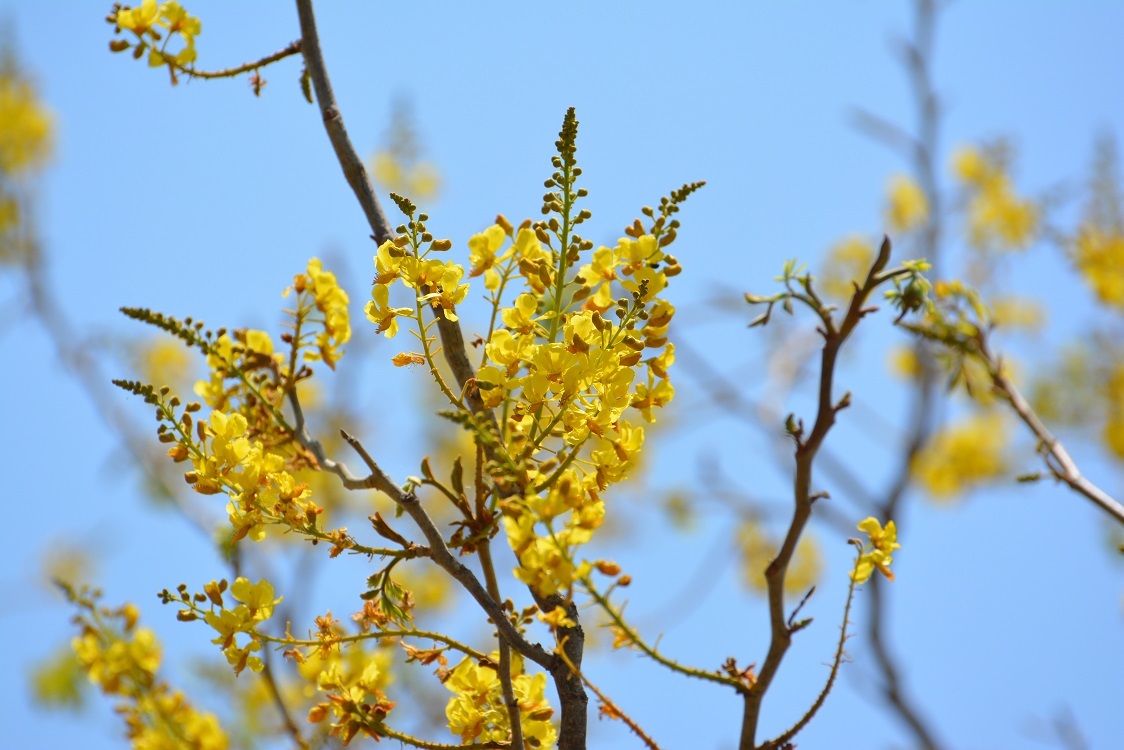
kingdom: Plantae
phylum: Tracheophyta
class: Magnoliopsida
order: Fabales
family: Fabaceae
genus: Cenostigma
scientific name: Cenostigma eriostachys
